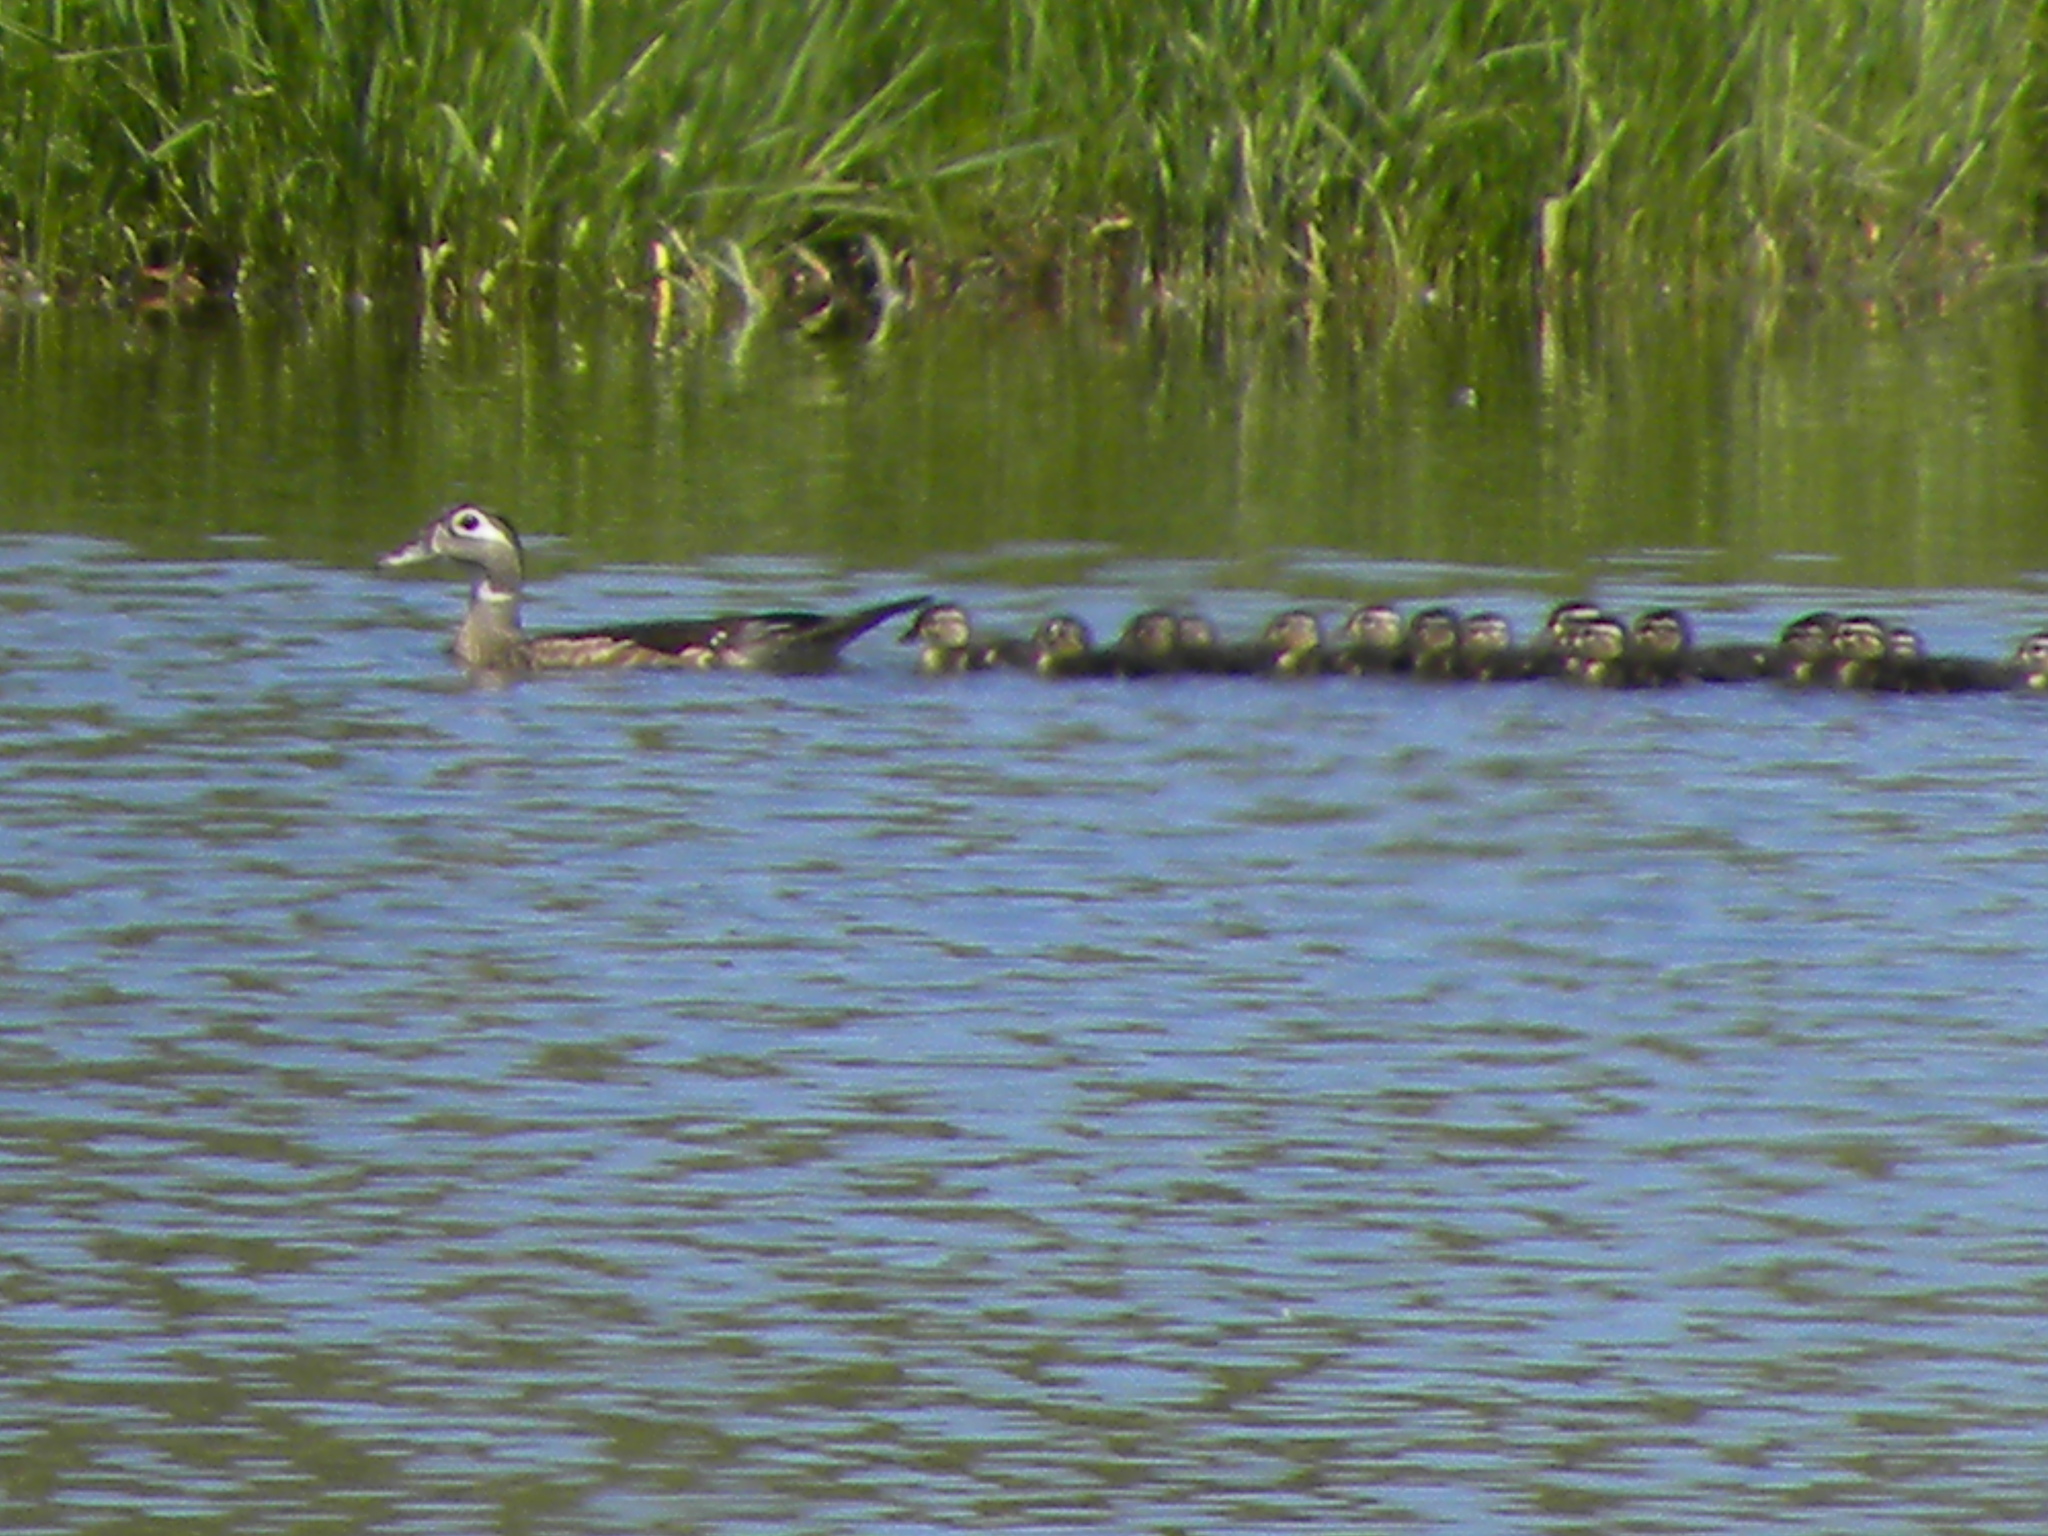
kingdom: Animalia
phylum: Chordata
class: Aves
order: Anseriformes
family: Anatidae
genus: Aix
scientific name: Aix sponsa
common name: Wood duck
